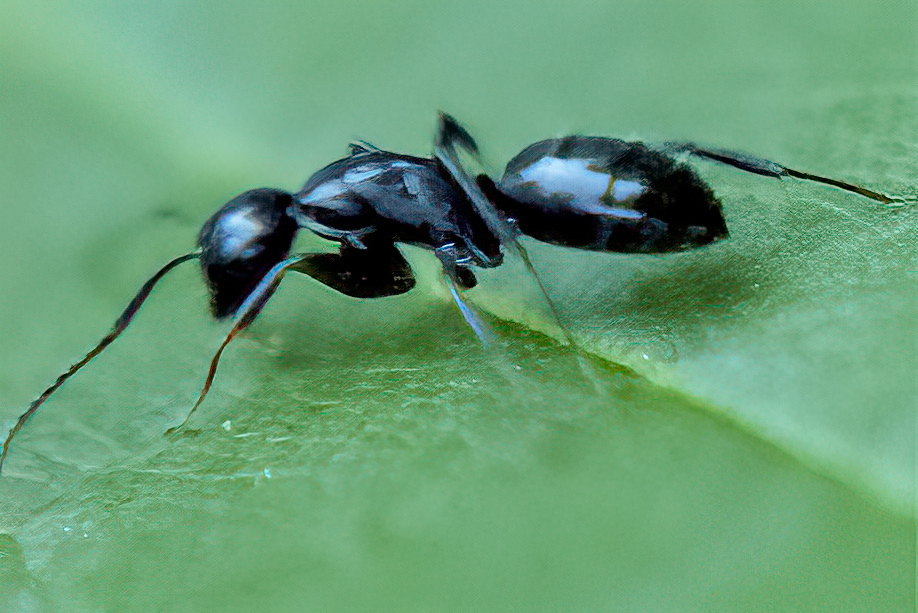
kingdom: Animalia
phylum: Arthropoda
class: Insecta
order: Hymenoptera
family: Formicidae
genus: Camponotus
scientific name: Camponotus pennsylvanicus
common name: Black carpenter ant
